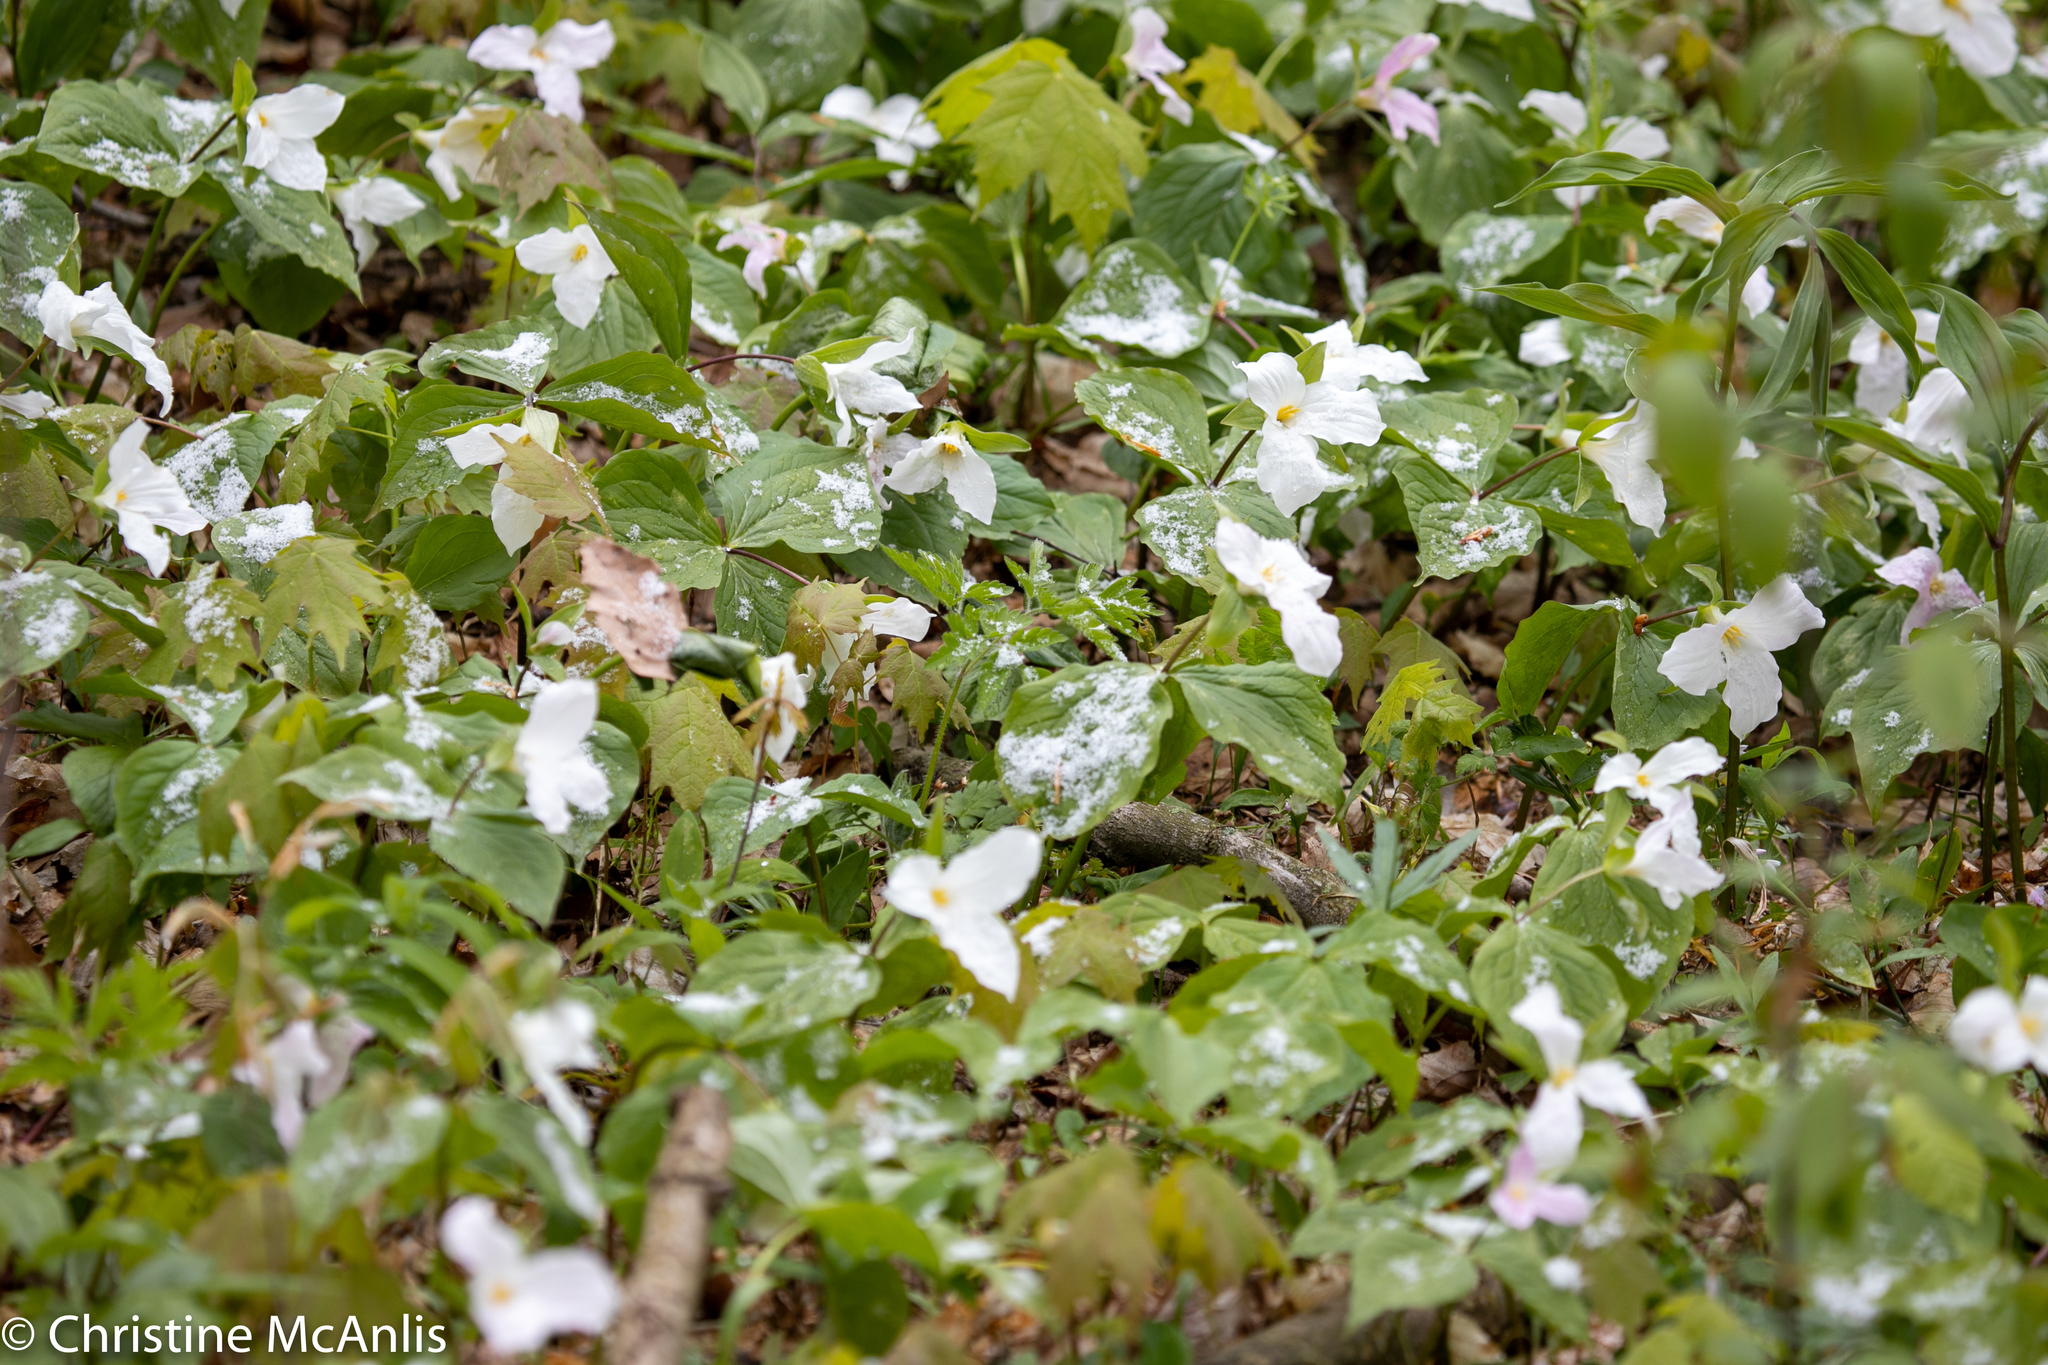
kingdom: Plantae
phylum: Tracheophyta
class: Liliopsida
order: Liliales
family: Melanthiaceae
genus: Trillium
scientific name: Trillium grandiflorum
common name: Great white trillium
